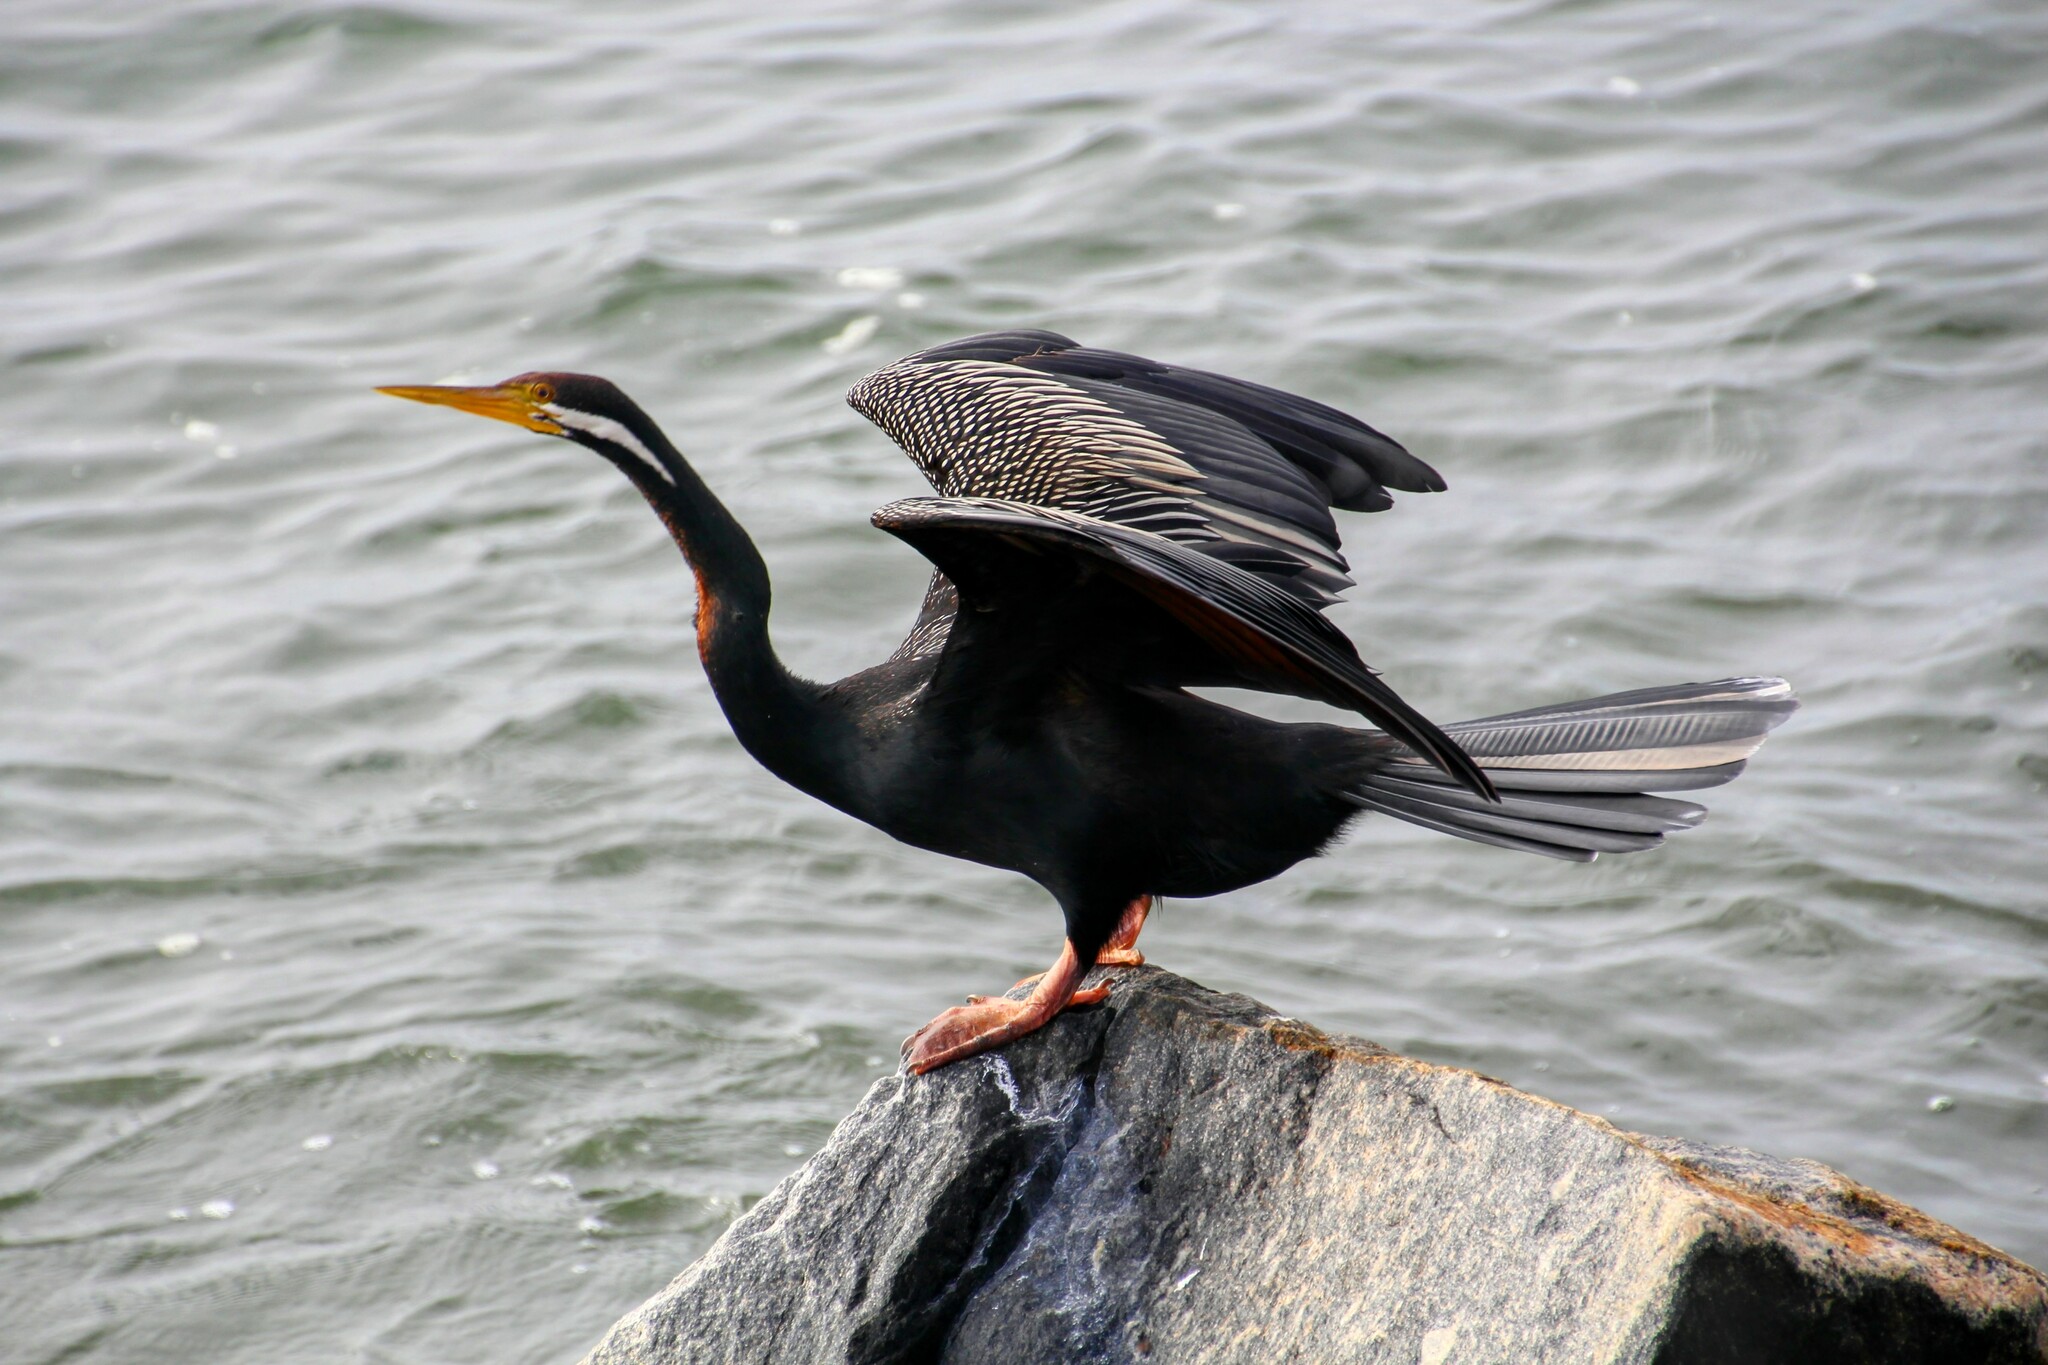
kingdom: Animalia
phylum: Chordata
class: Aves
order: Suliformes
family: Anhingidae
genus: Anhinga
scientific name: Anhinga novaehollandiae
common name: Australasian darter
